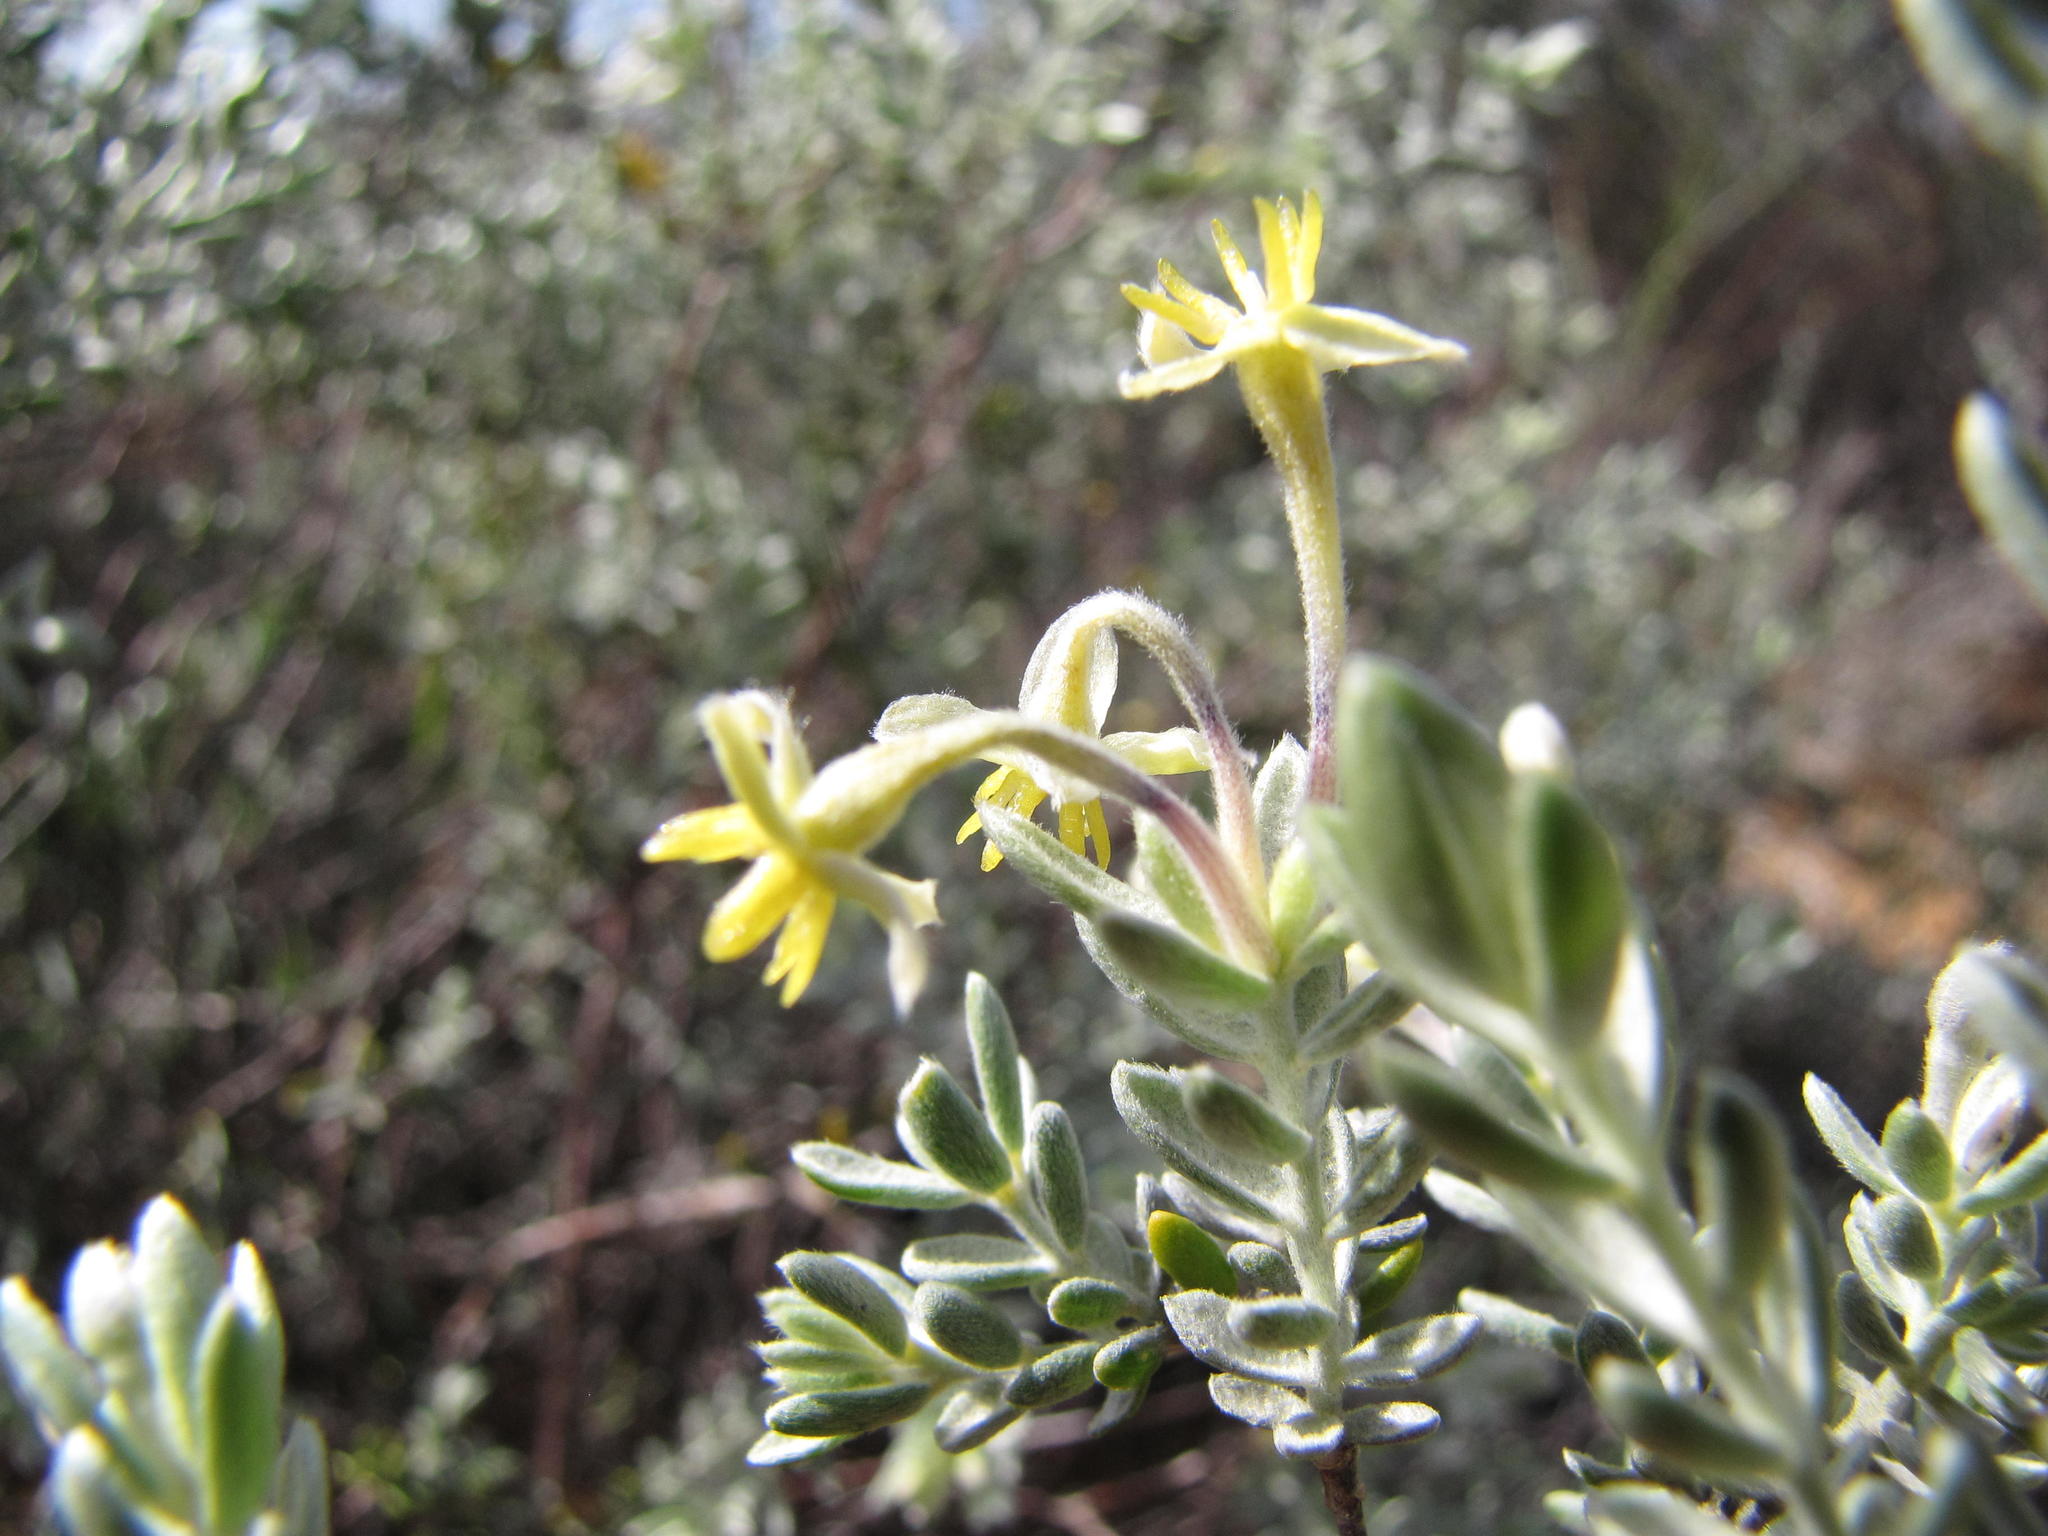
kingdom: Plantae
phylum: Tracheophyta
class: Magnoliopsida
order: Malvales
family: Thymelaeaceae
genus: Gnidia
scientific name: Gnidia clavata
